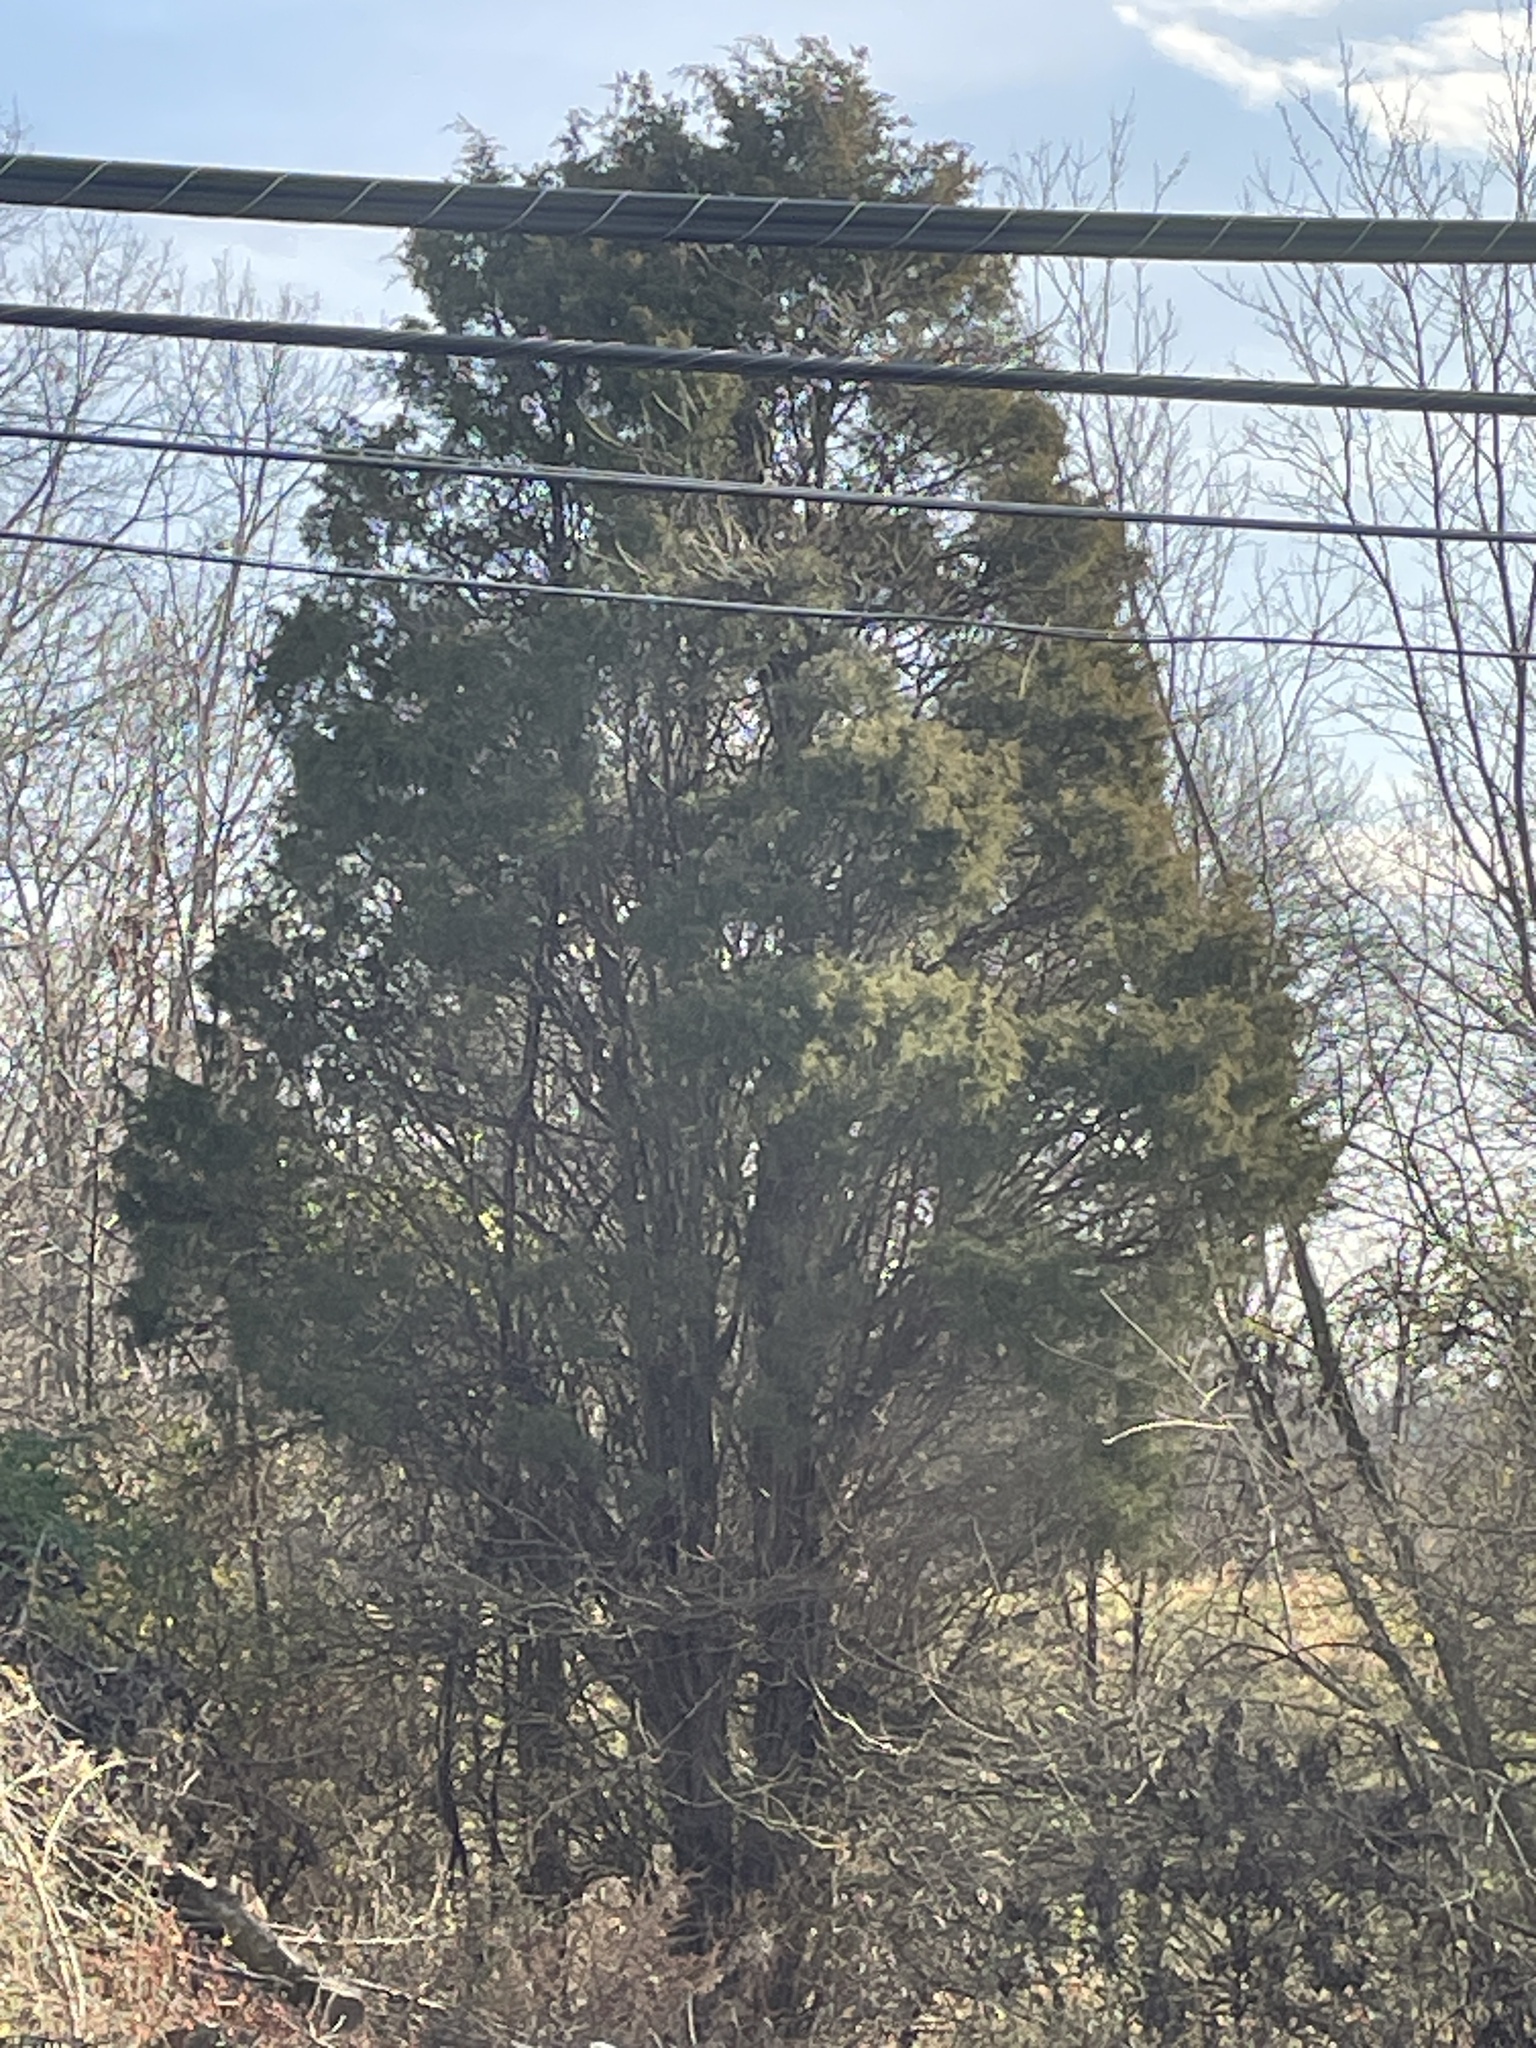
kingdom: Plantae
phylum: Tracheophyta
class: Pinopsida
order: Pinales
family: Cupressaceae
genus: Juniperus
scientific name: Juniperus virginiana
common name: Red juniper
